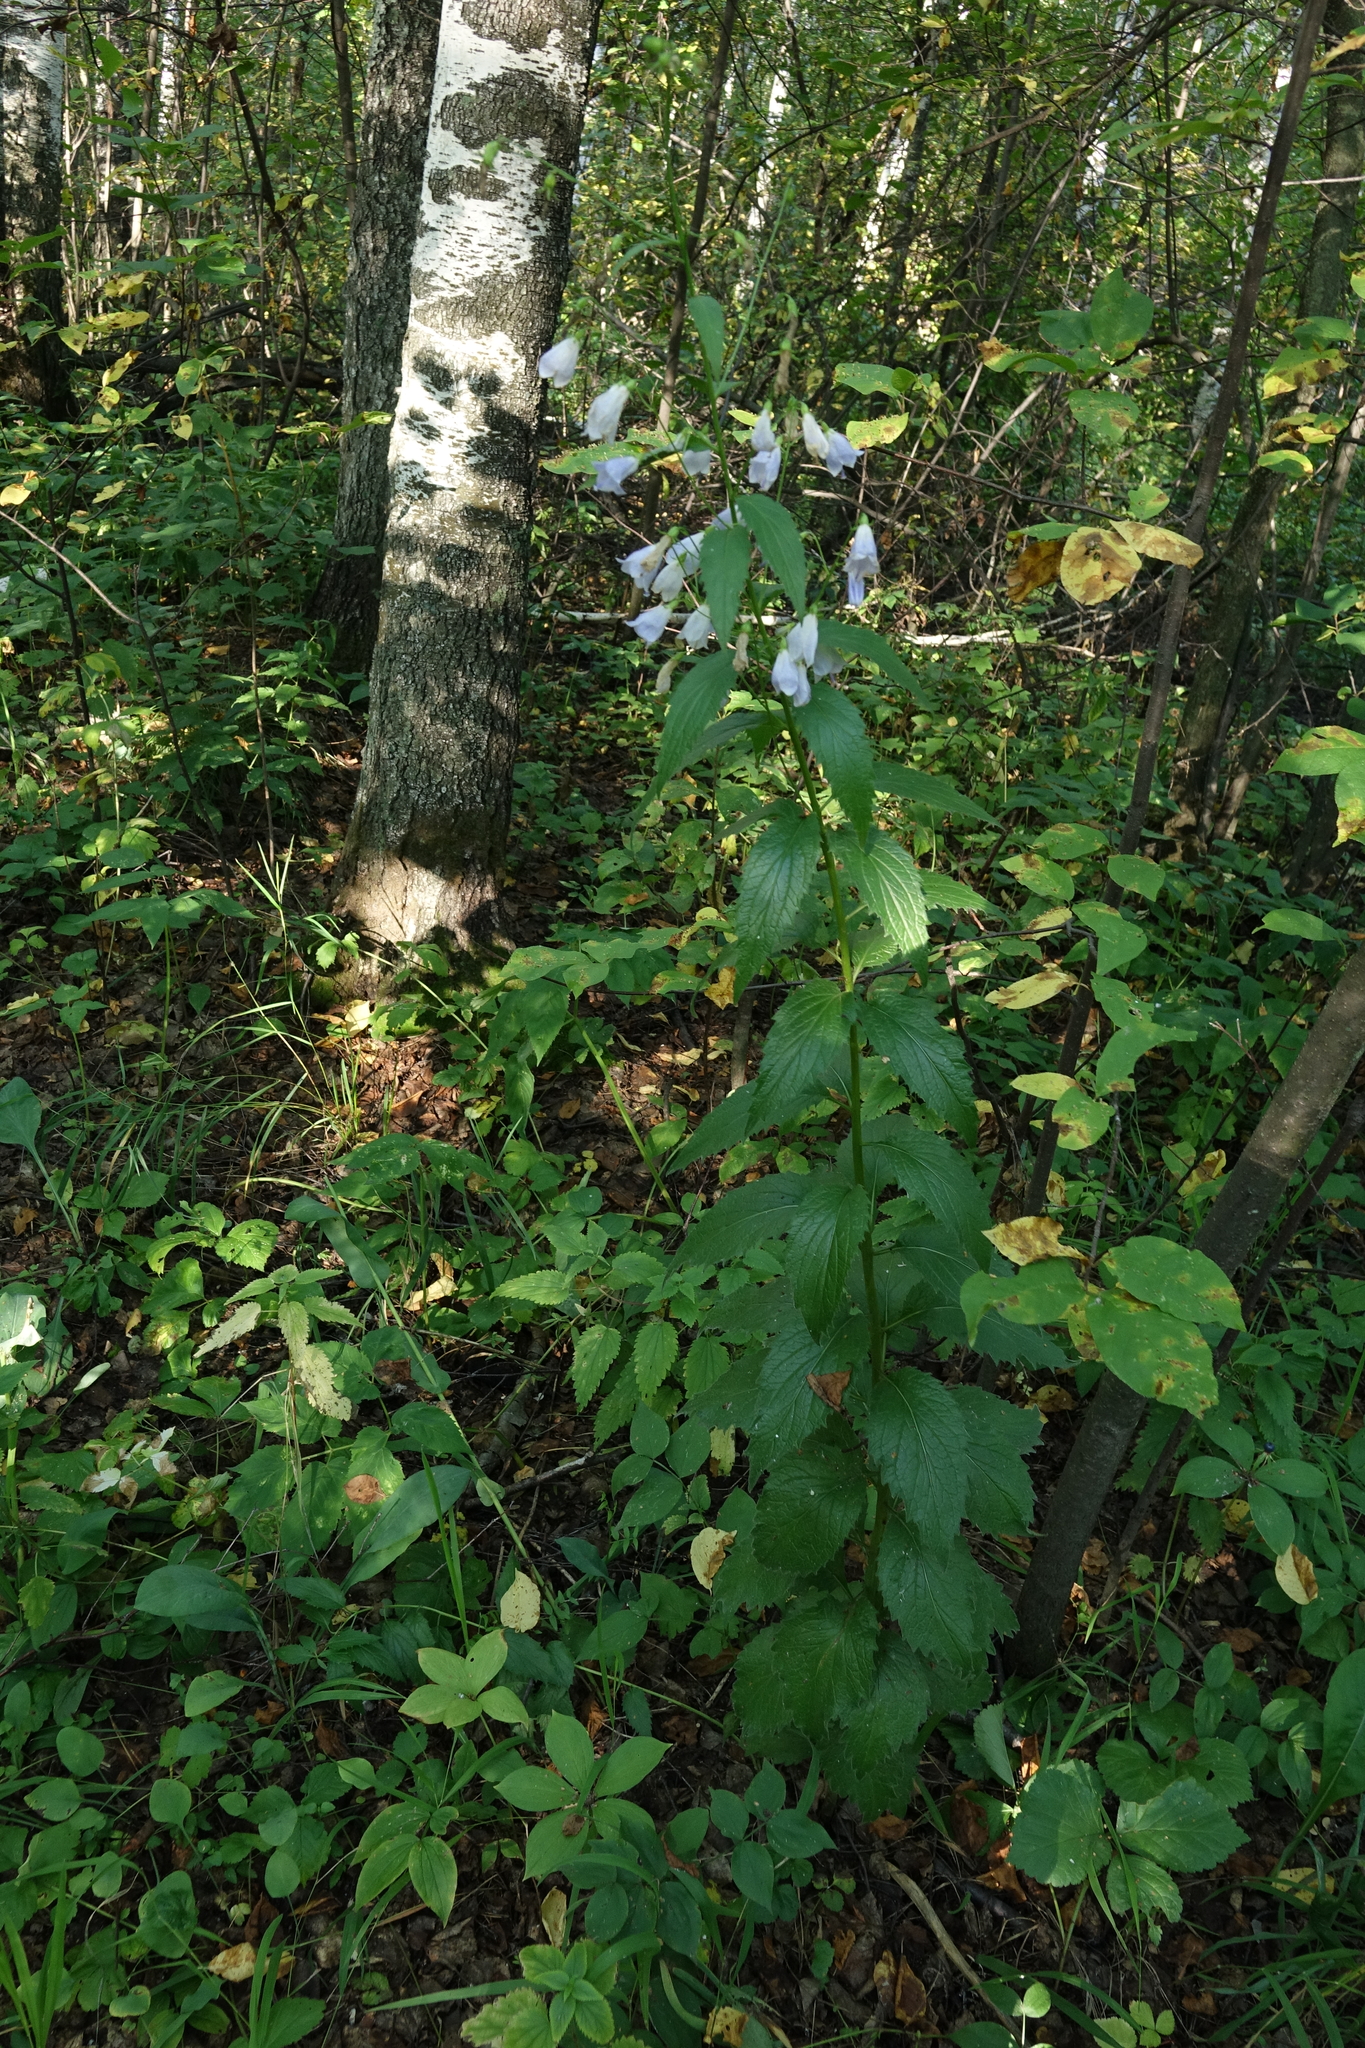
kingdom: Plantae
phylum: Tracheophyta
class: Magnoliopsida
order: Asterales
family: Campanulaceae
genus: Adenophora
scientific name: Adenophora liliifolia
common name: Lilyleaf ladybells
